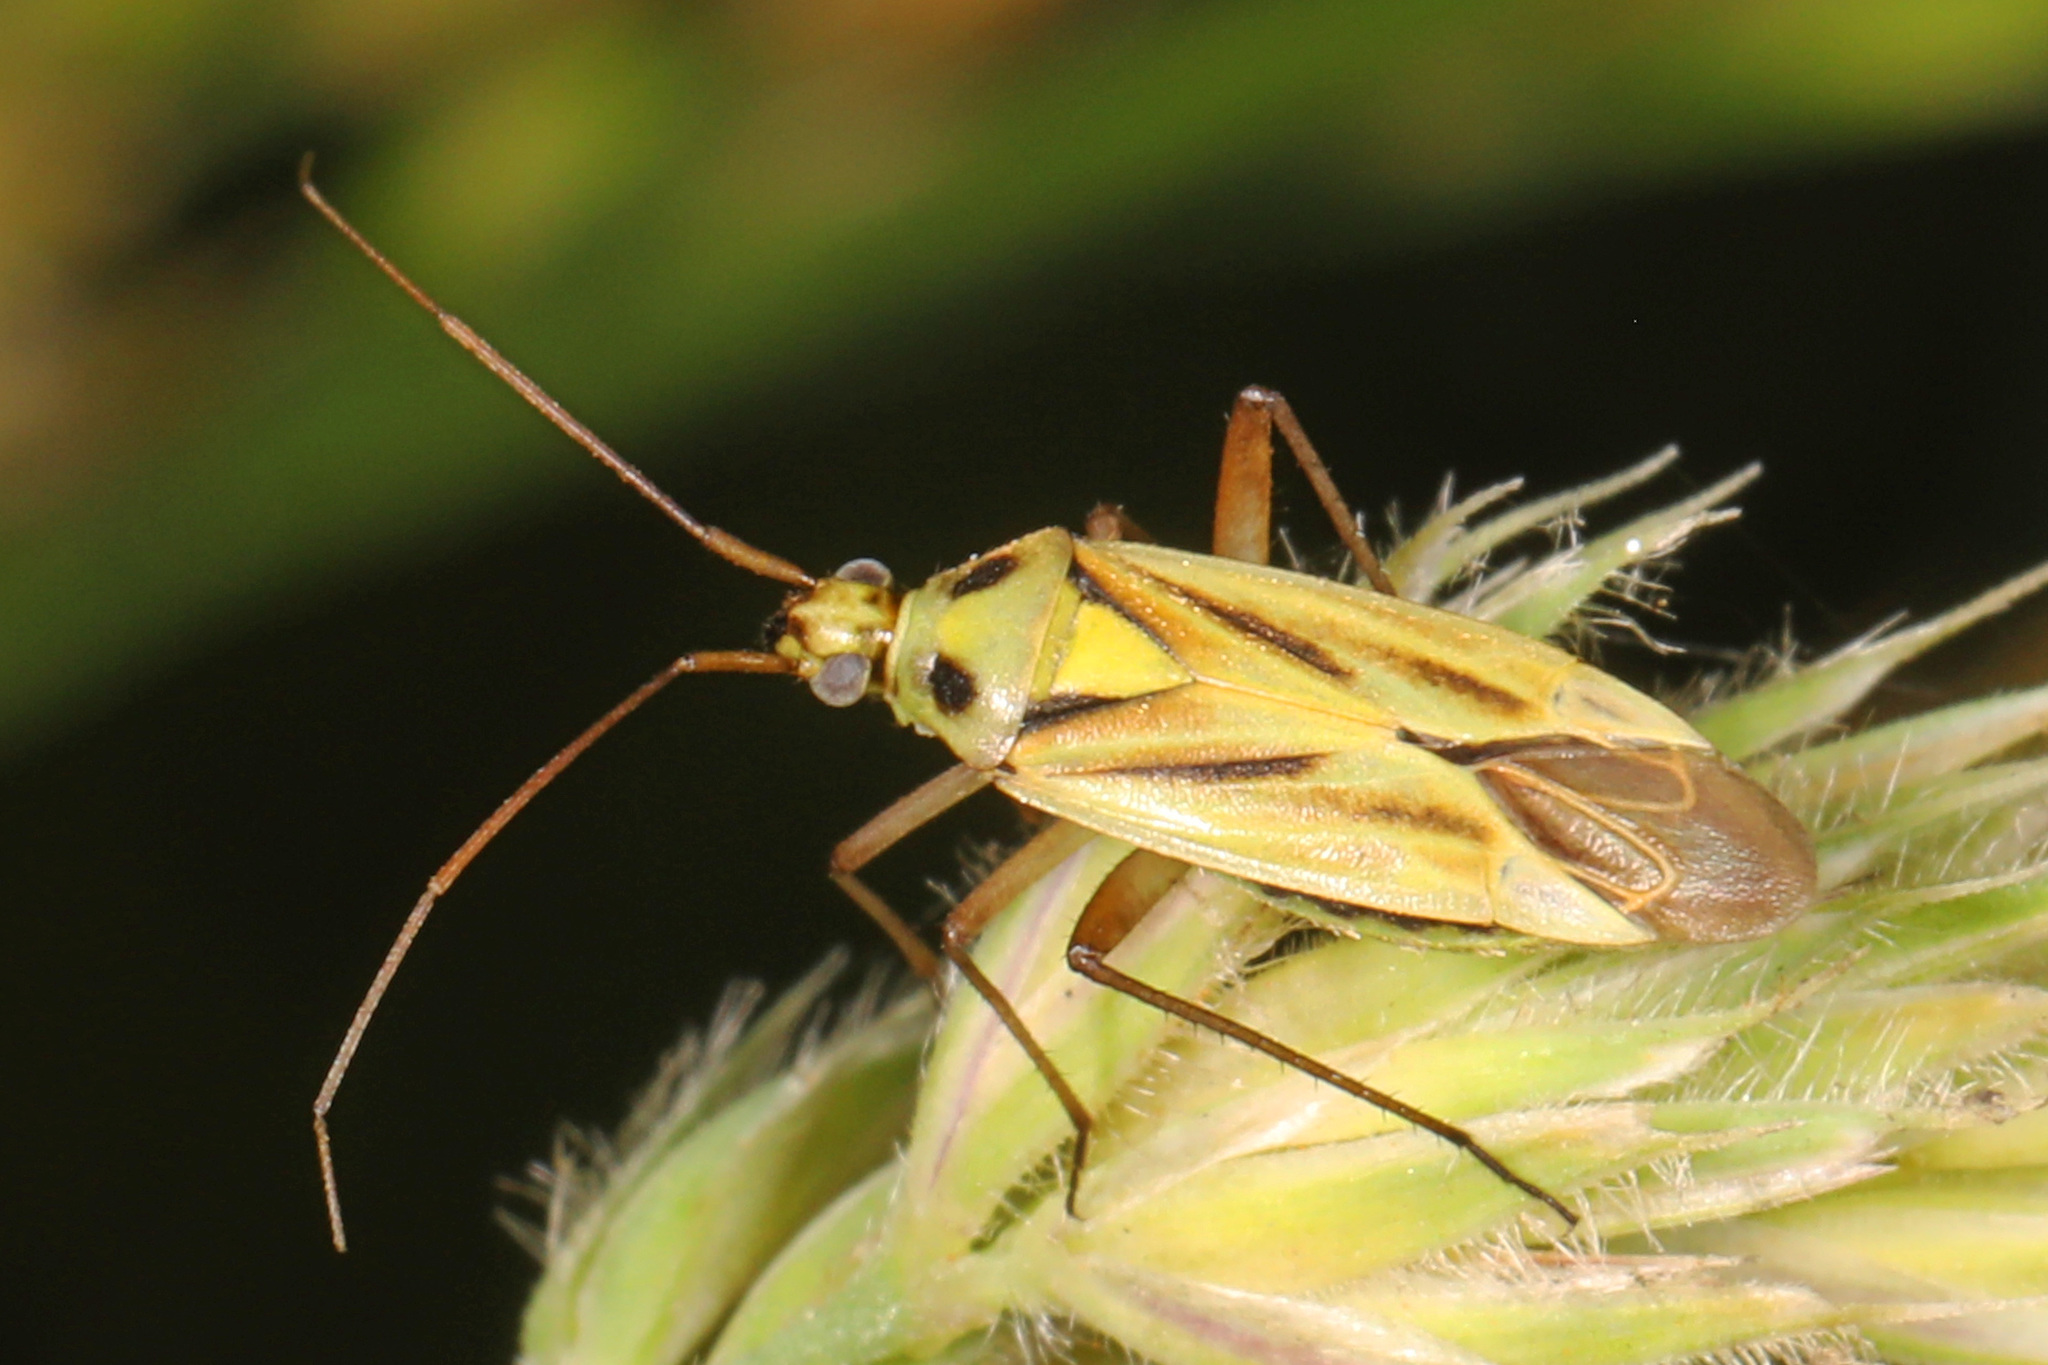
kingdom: Animalia
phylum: Arthropoda
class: Insecta
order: Hemiptera
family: Miridae
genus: Stenotus
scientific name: Stenotus binotatus
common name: Plant bug
